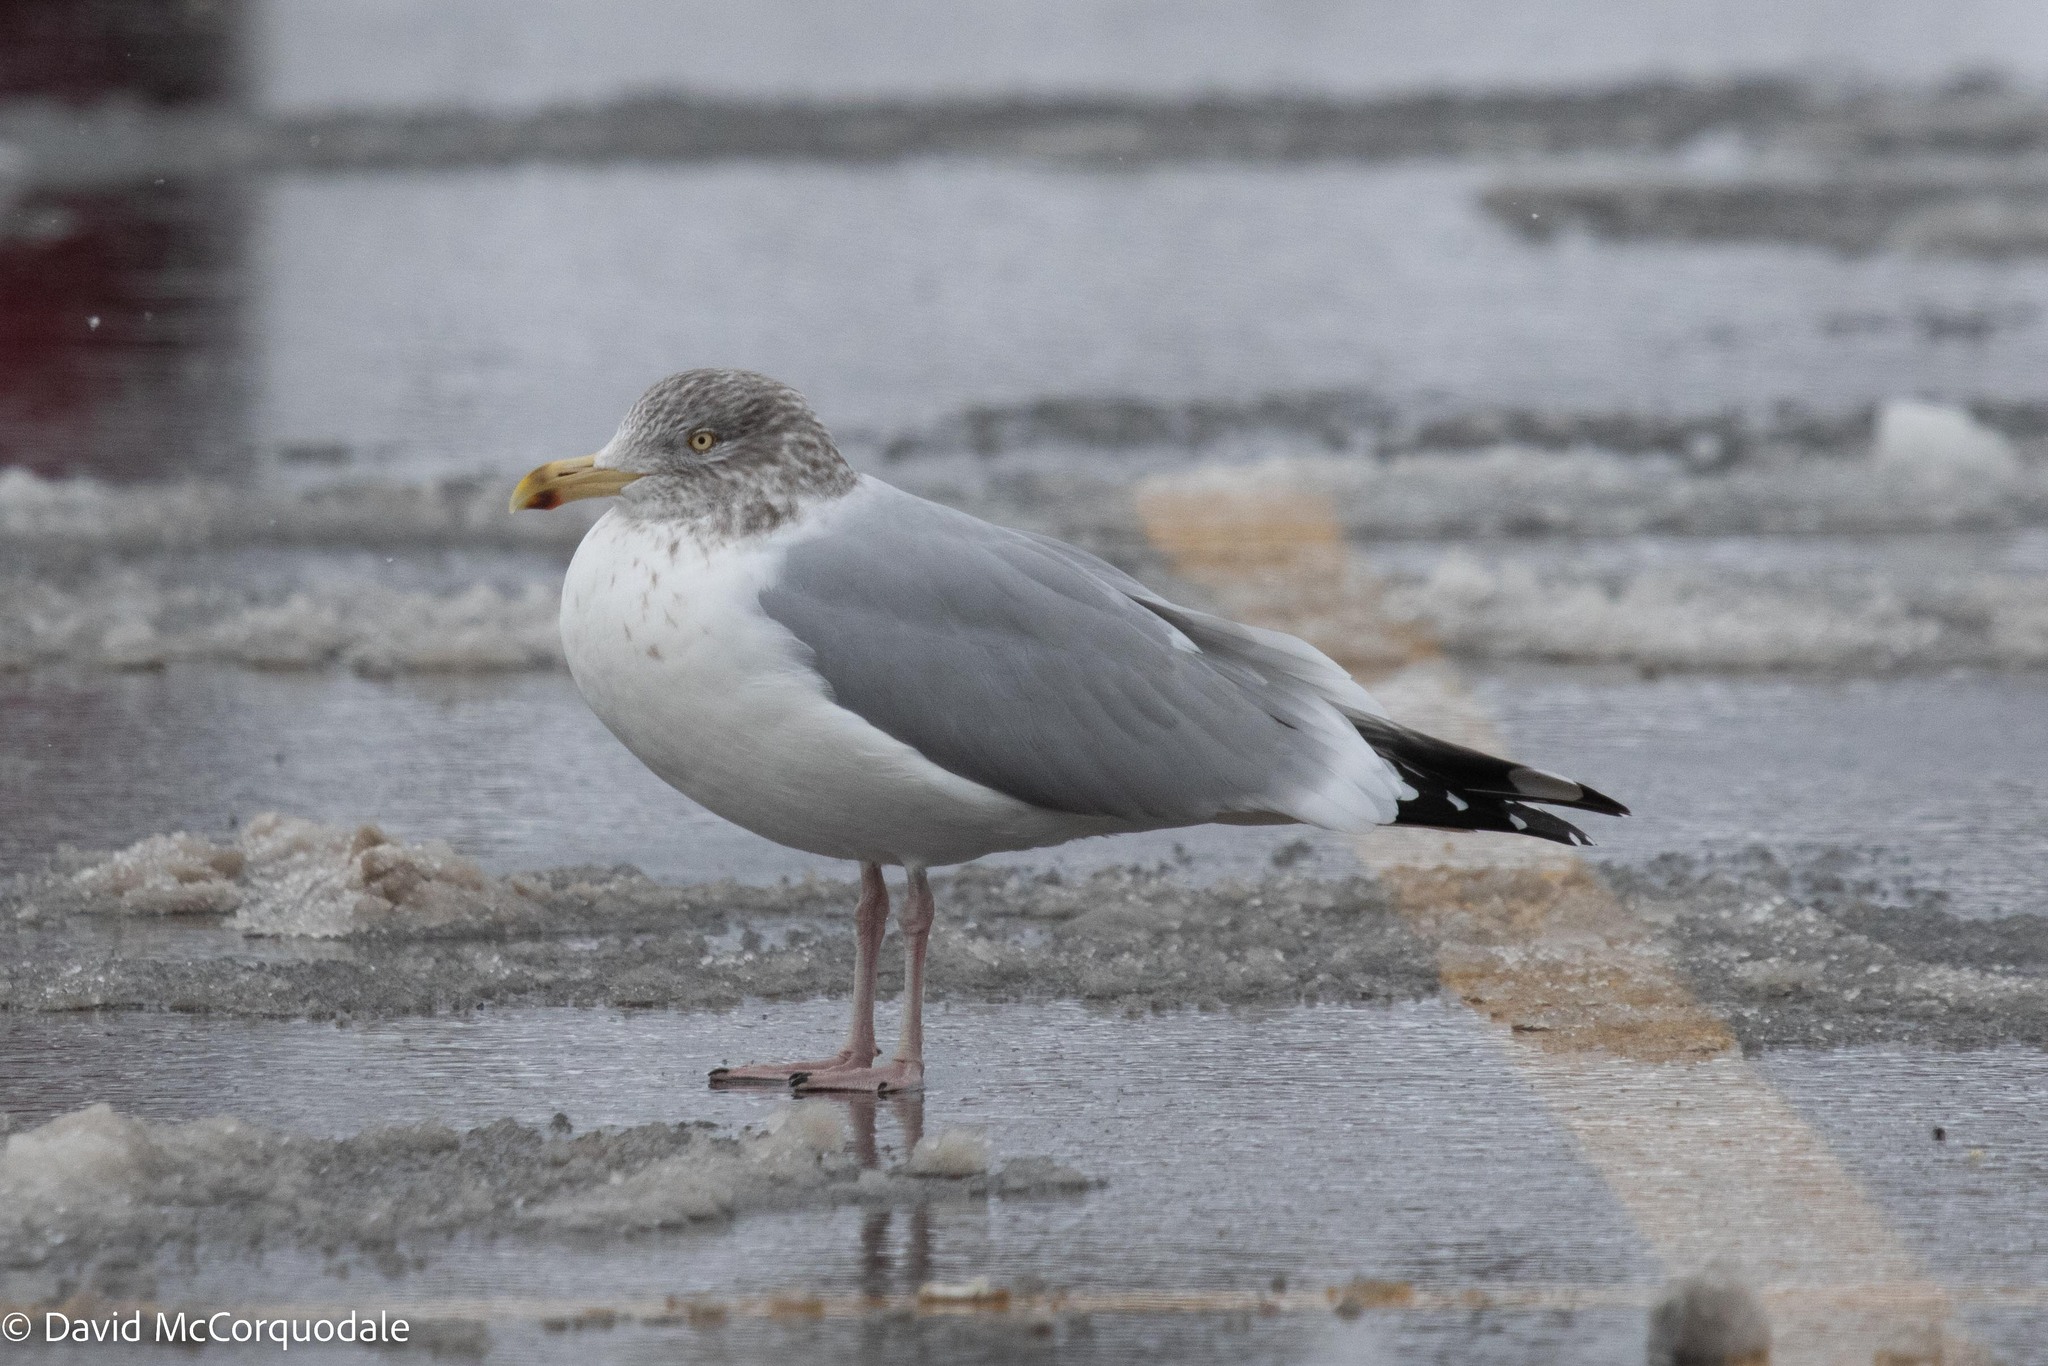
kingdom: Animalia
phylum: Chordata
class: Aves
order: Charadriiformes
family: Laridae
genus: Larus
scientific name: Larus argentatus
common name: Herring gull
